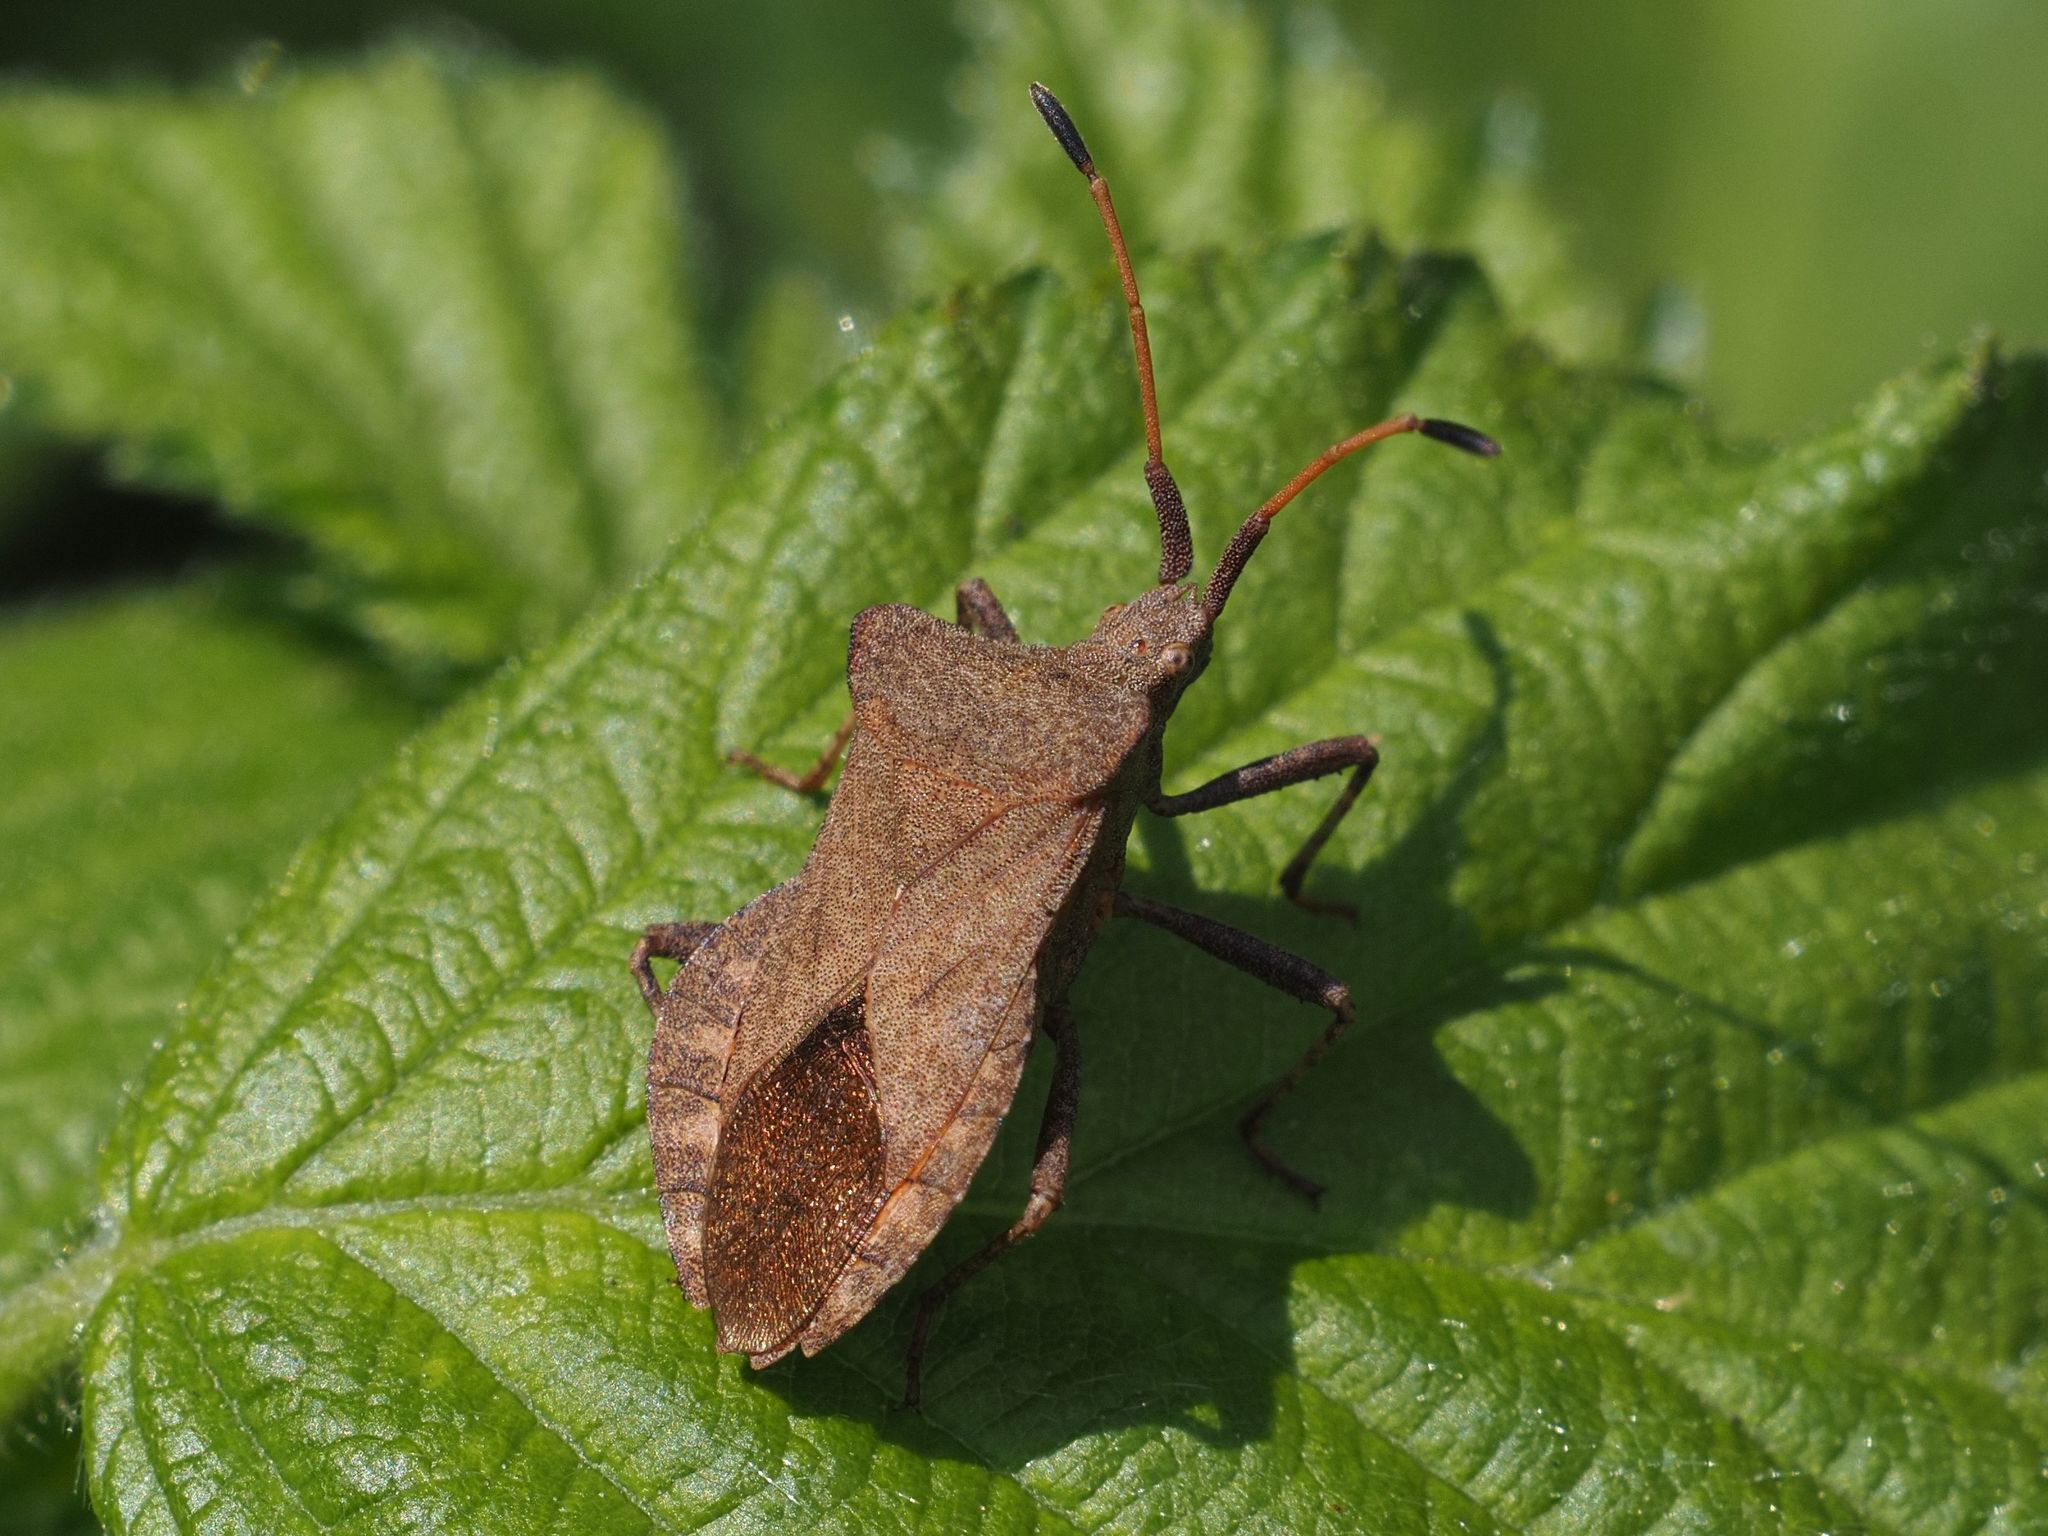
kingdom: Animalia
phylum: Arthropoda
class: Insecta
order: Hemiptera
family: Coreidae
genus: Coreus
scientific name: Coreus marginatus
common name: Dock bug
